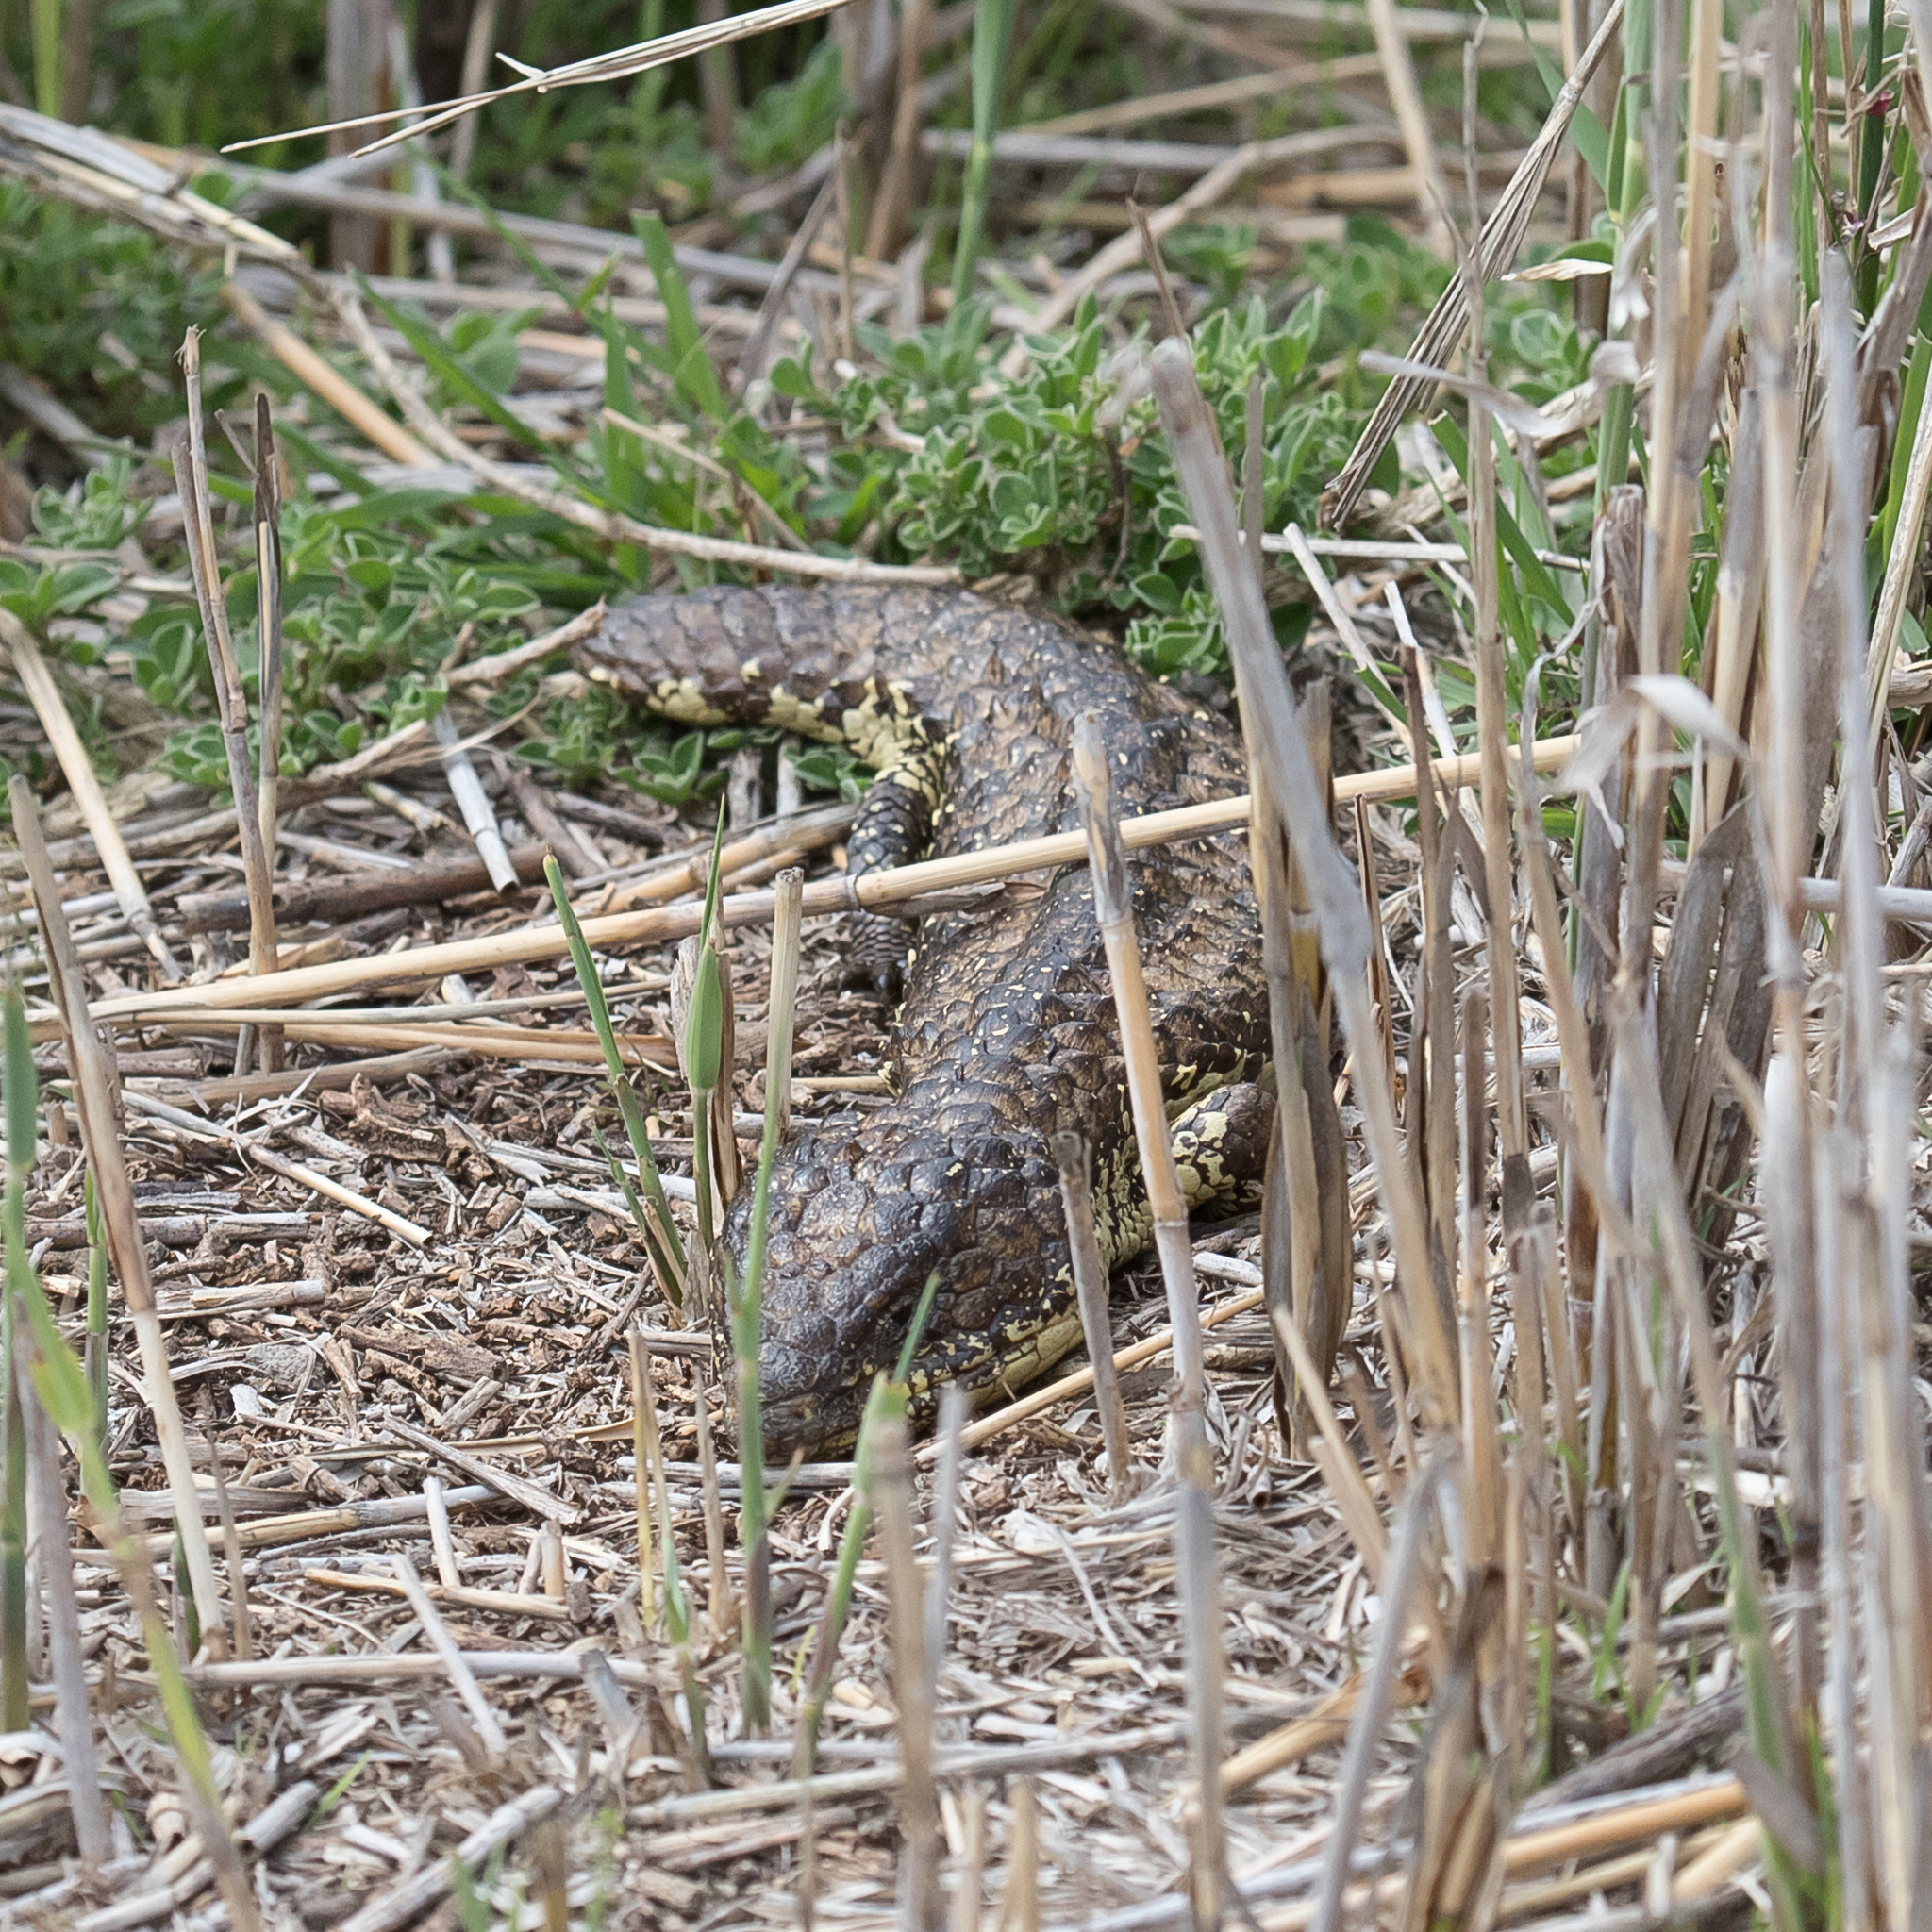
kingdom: Animalia
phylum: Chordata
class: Squamata
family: Scincidae
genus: Tiliqua
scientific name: Tiliqua rugosa
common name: Pinecone lizard
